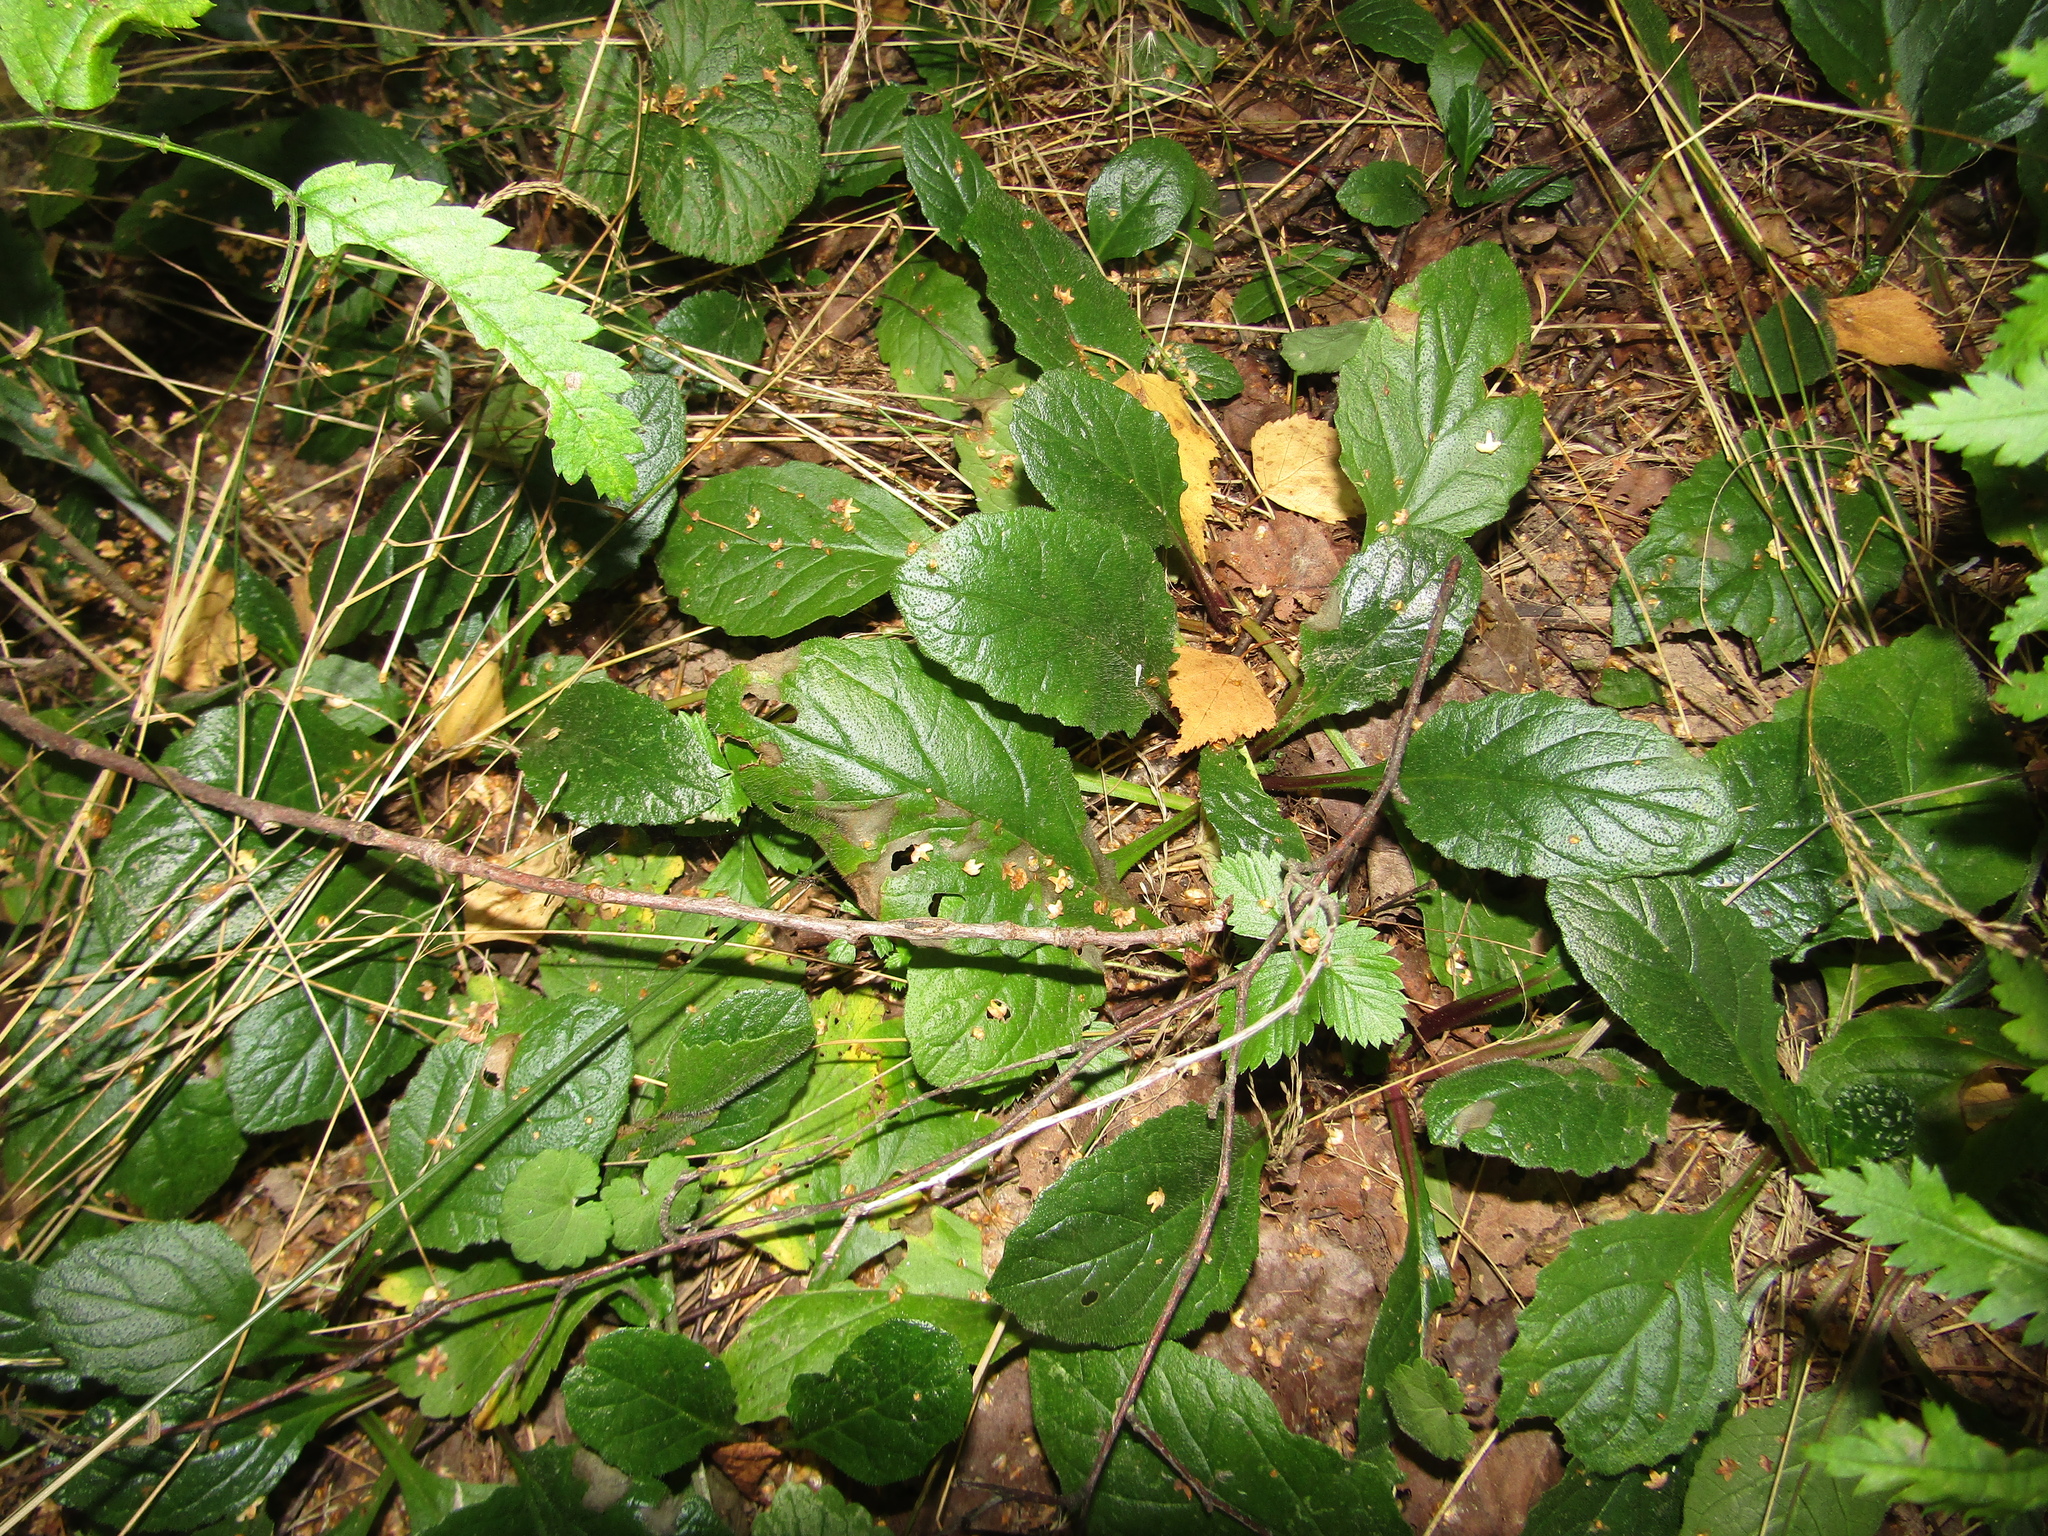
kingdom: Plantae
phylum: Tracheophyta
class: Magnoliopsida
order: Lamiales
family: Lamiaceae
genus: Ajuga
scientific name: Ajuga reptans
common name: Bugle
